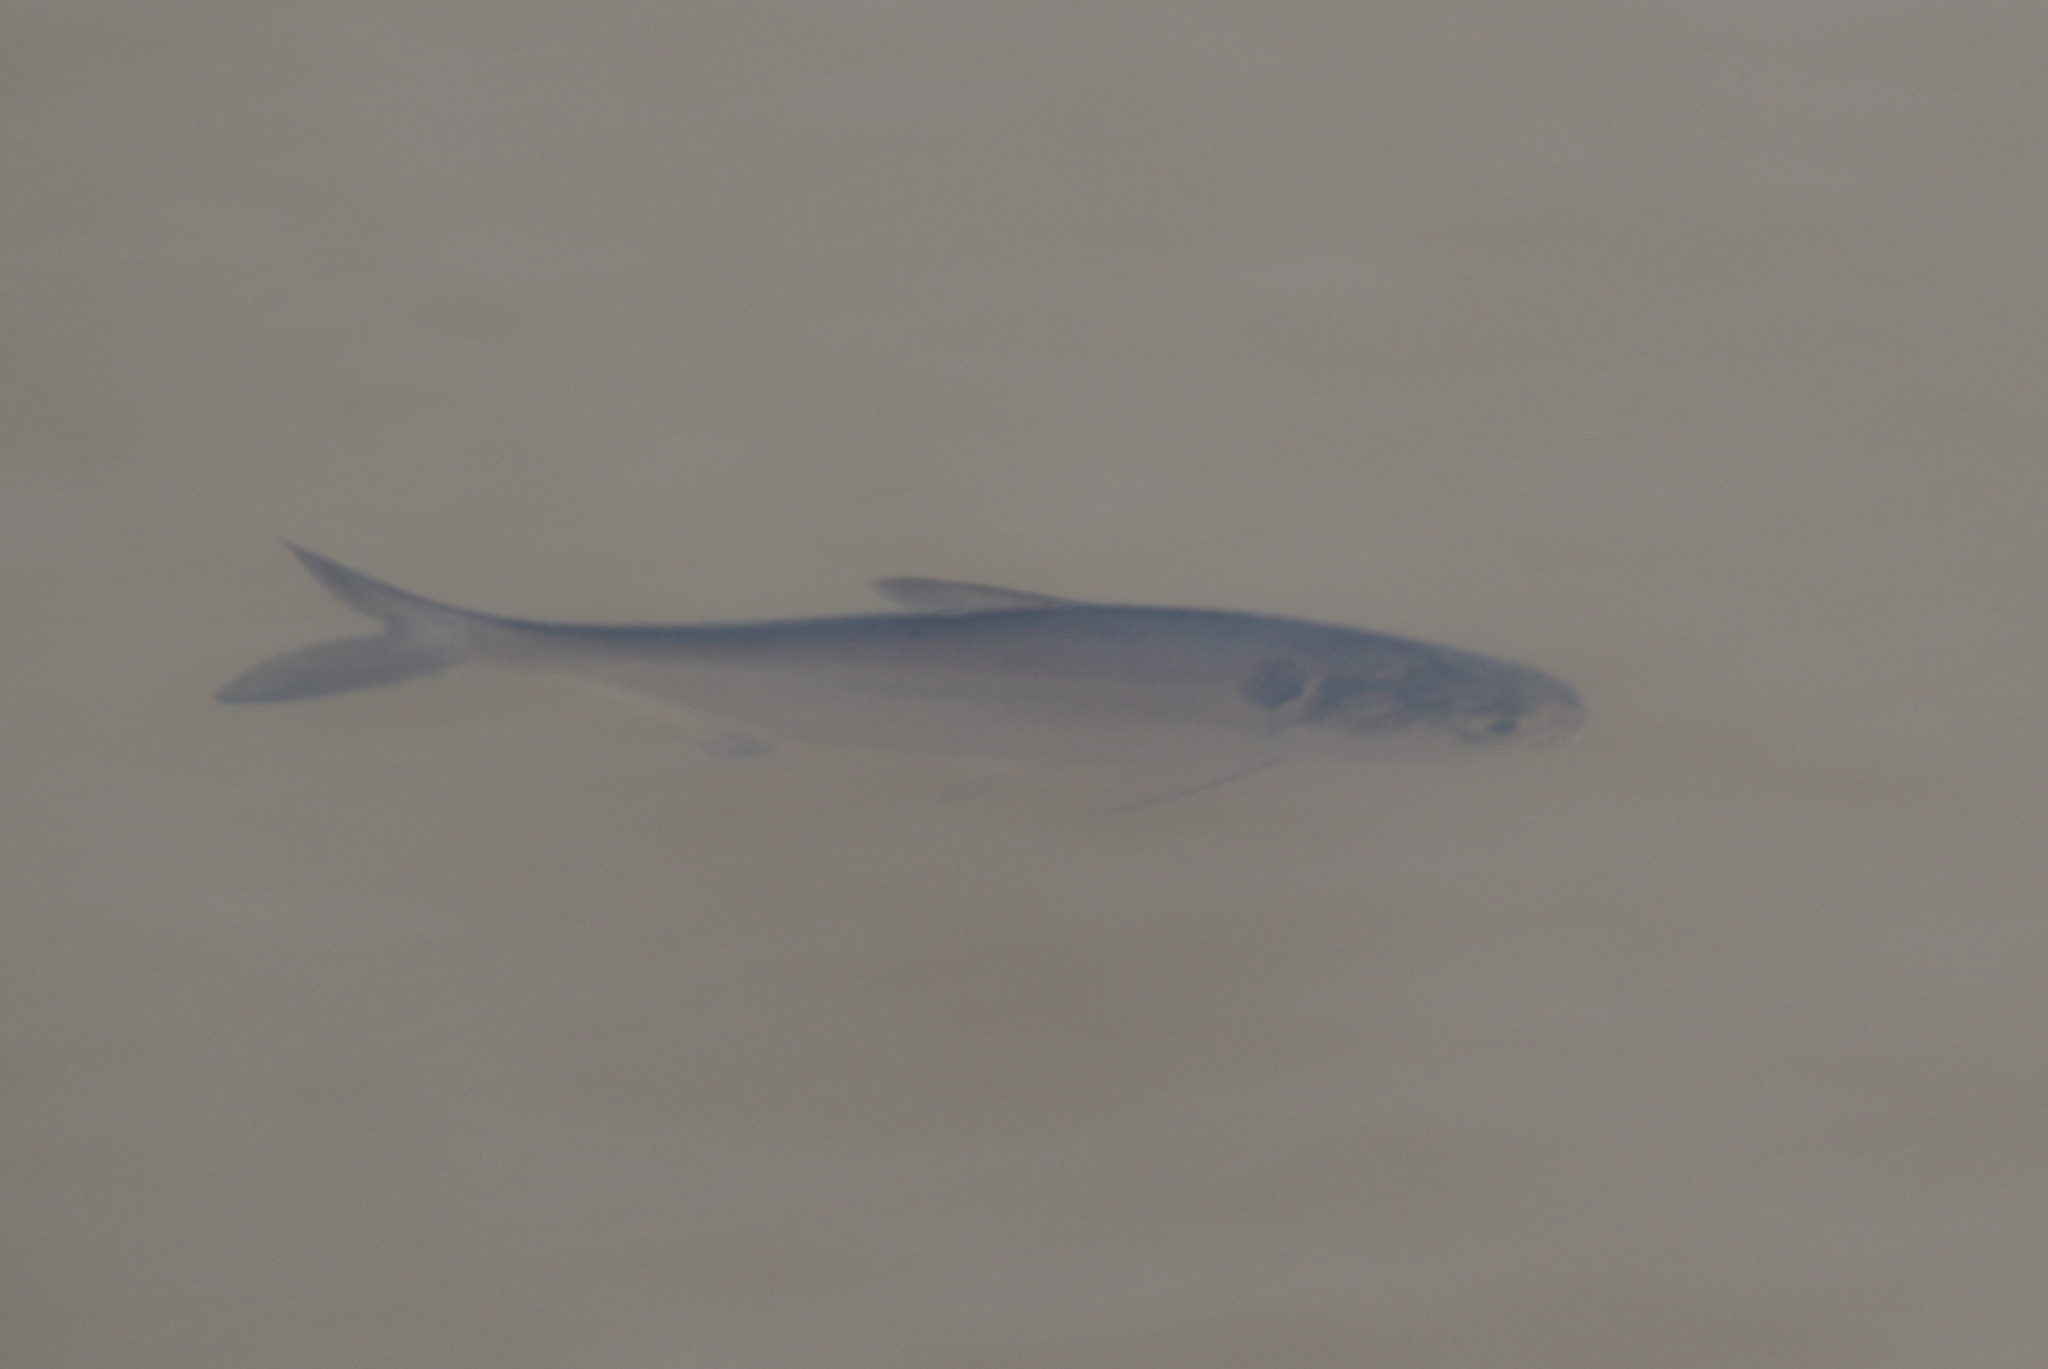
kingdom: Animalia
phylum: Chordata
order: Clupeiformes
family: Clupeidae
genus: Dorosoma
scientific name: Dorosoma cepedianum
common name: Gizzard shad
